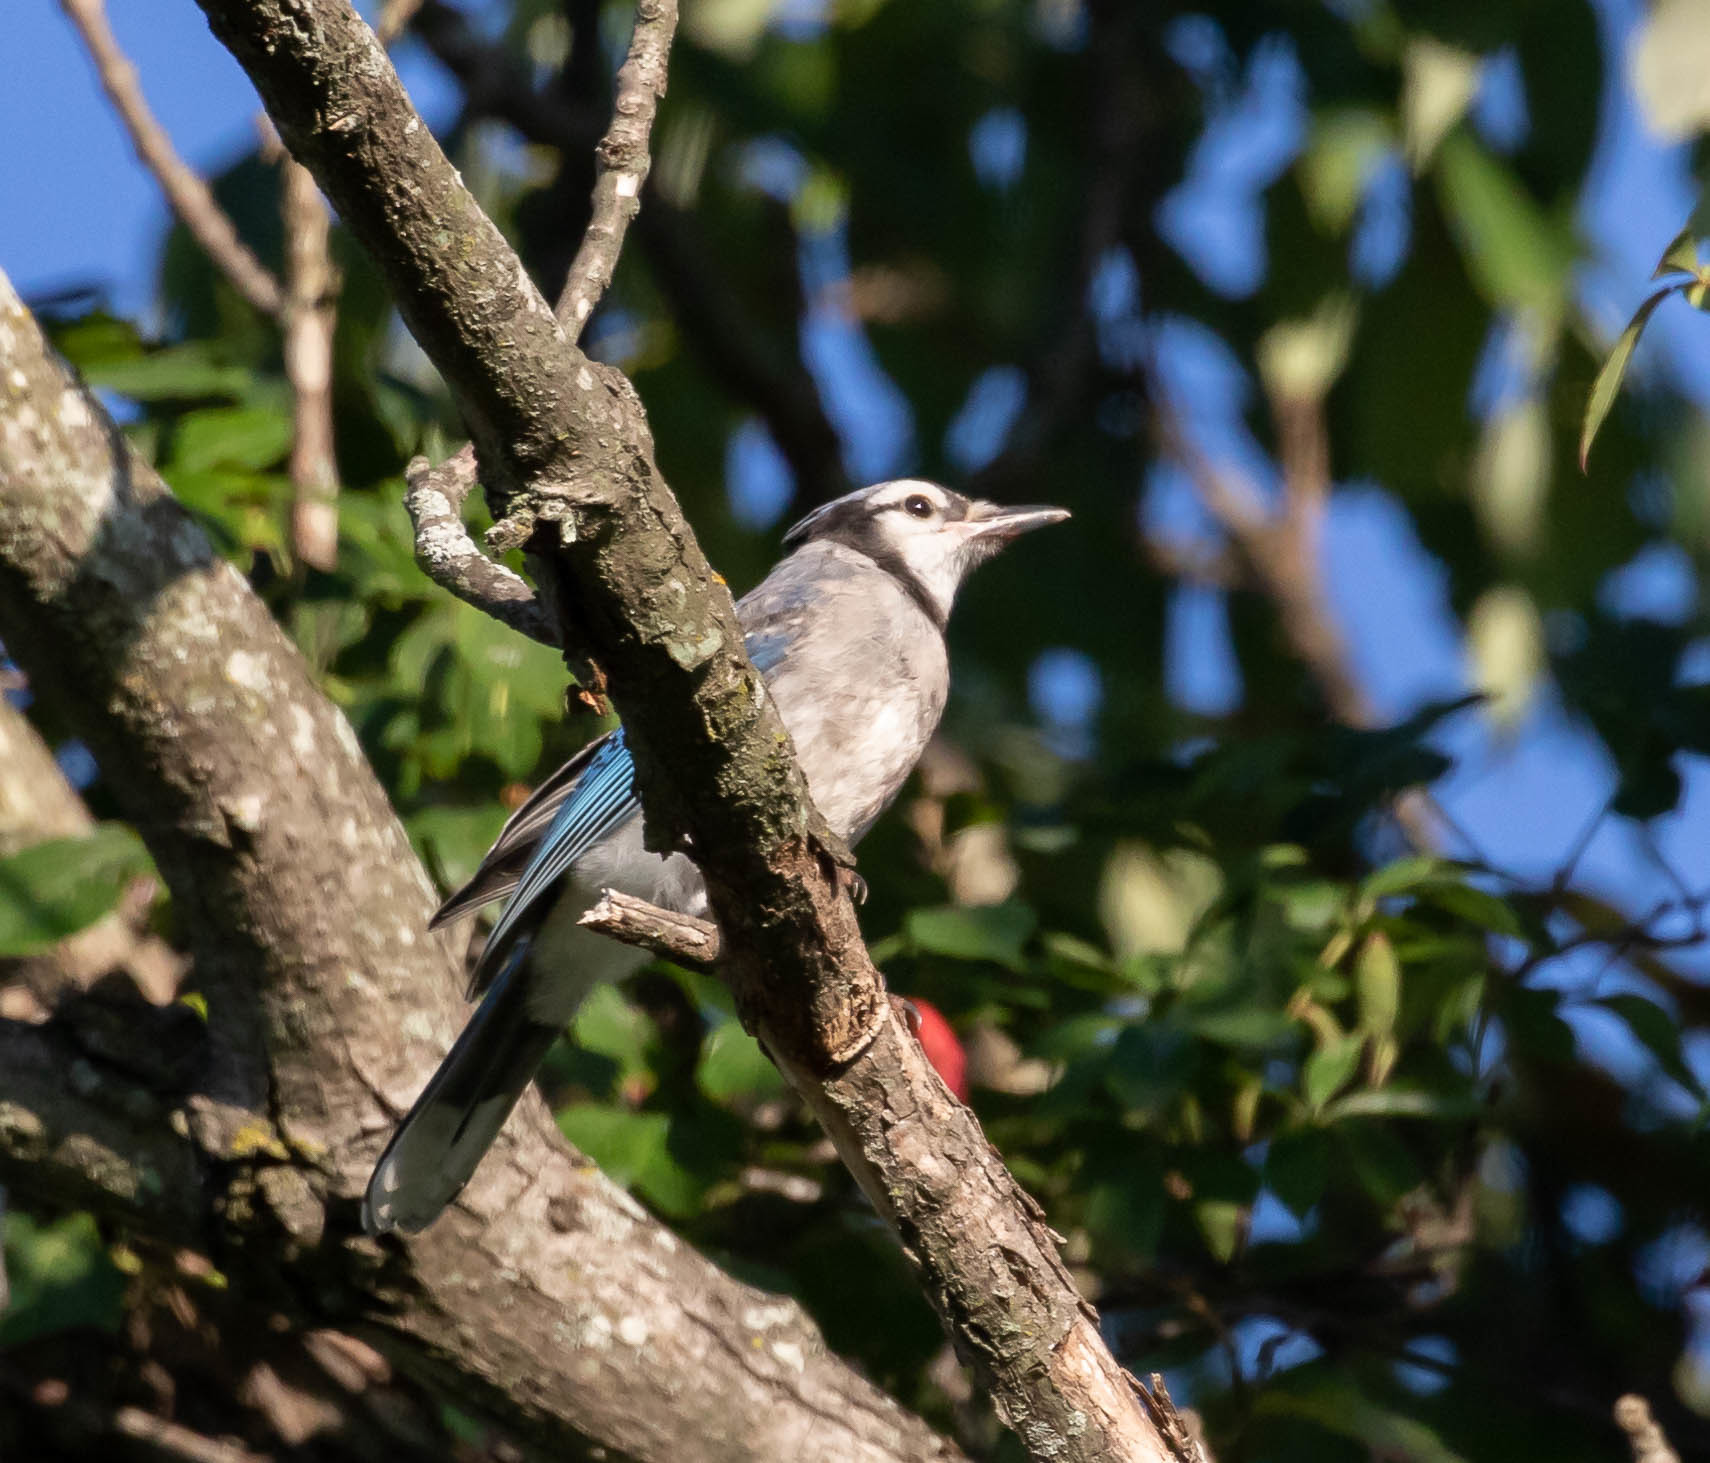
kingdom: Animalia
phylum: Chordata
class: Aves
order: Passeriformes
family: Corvidae
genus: Cyanocitta
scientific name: Cyanocitta cristata
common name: Blue jay
